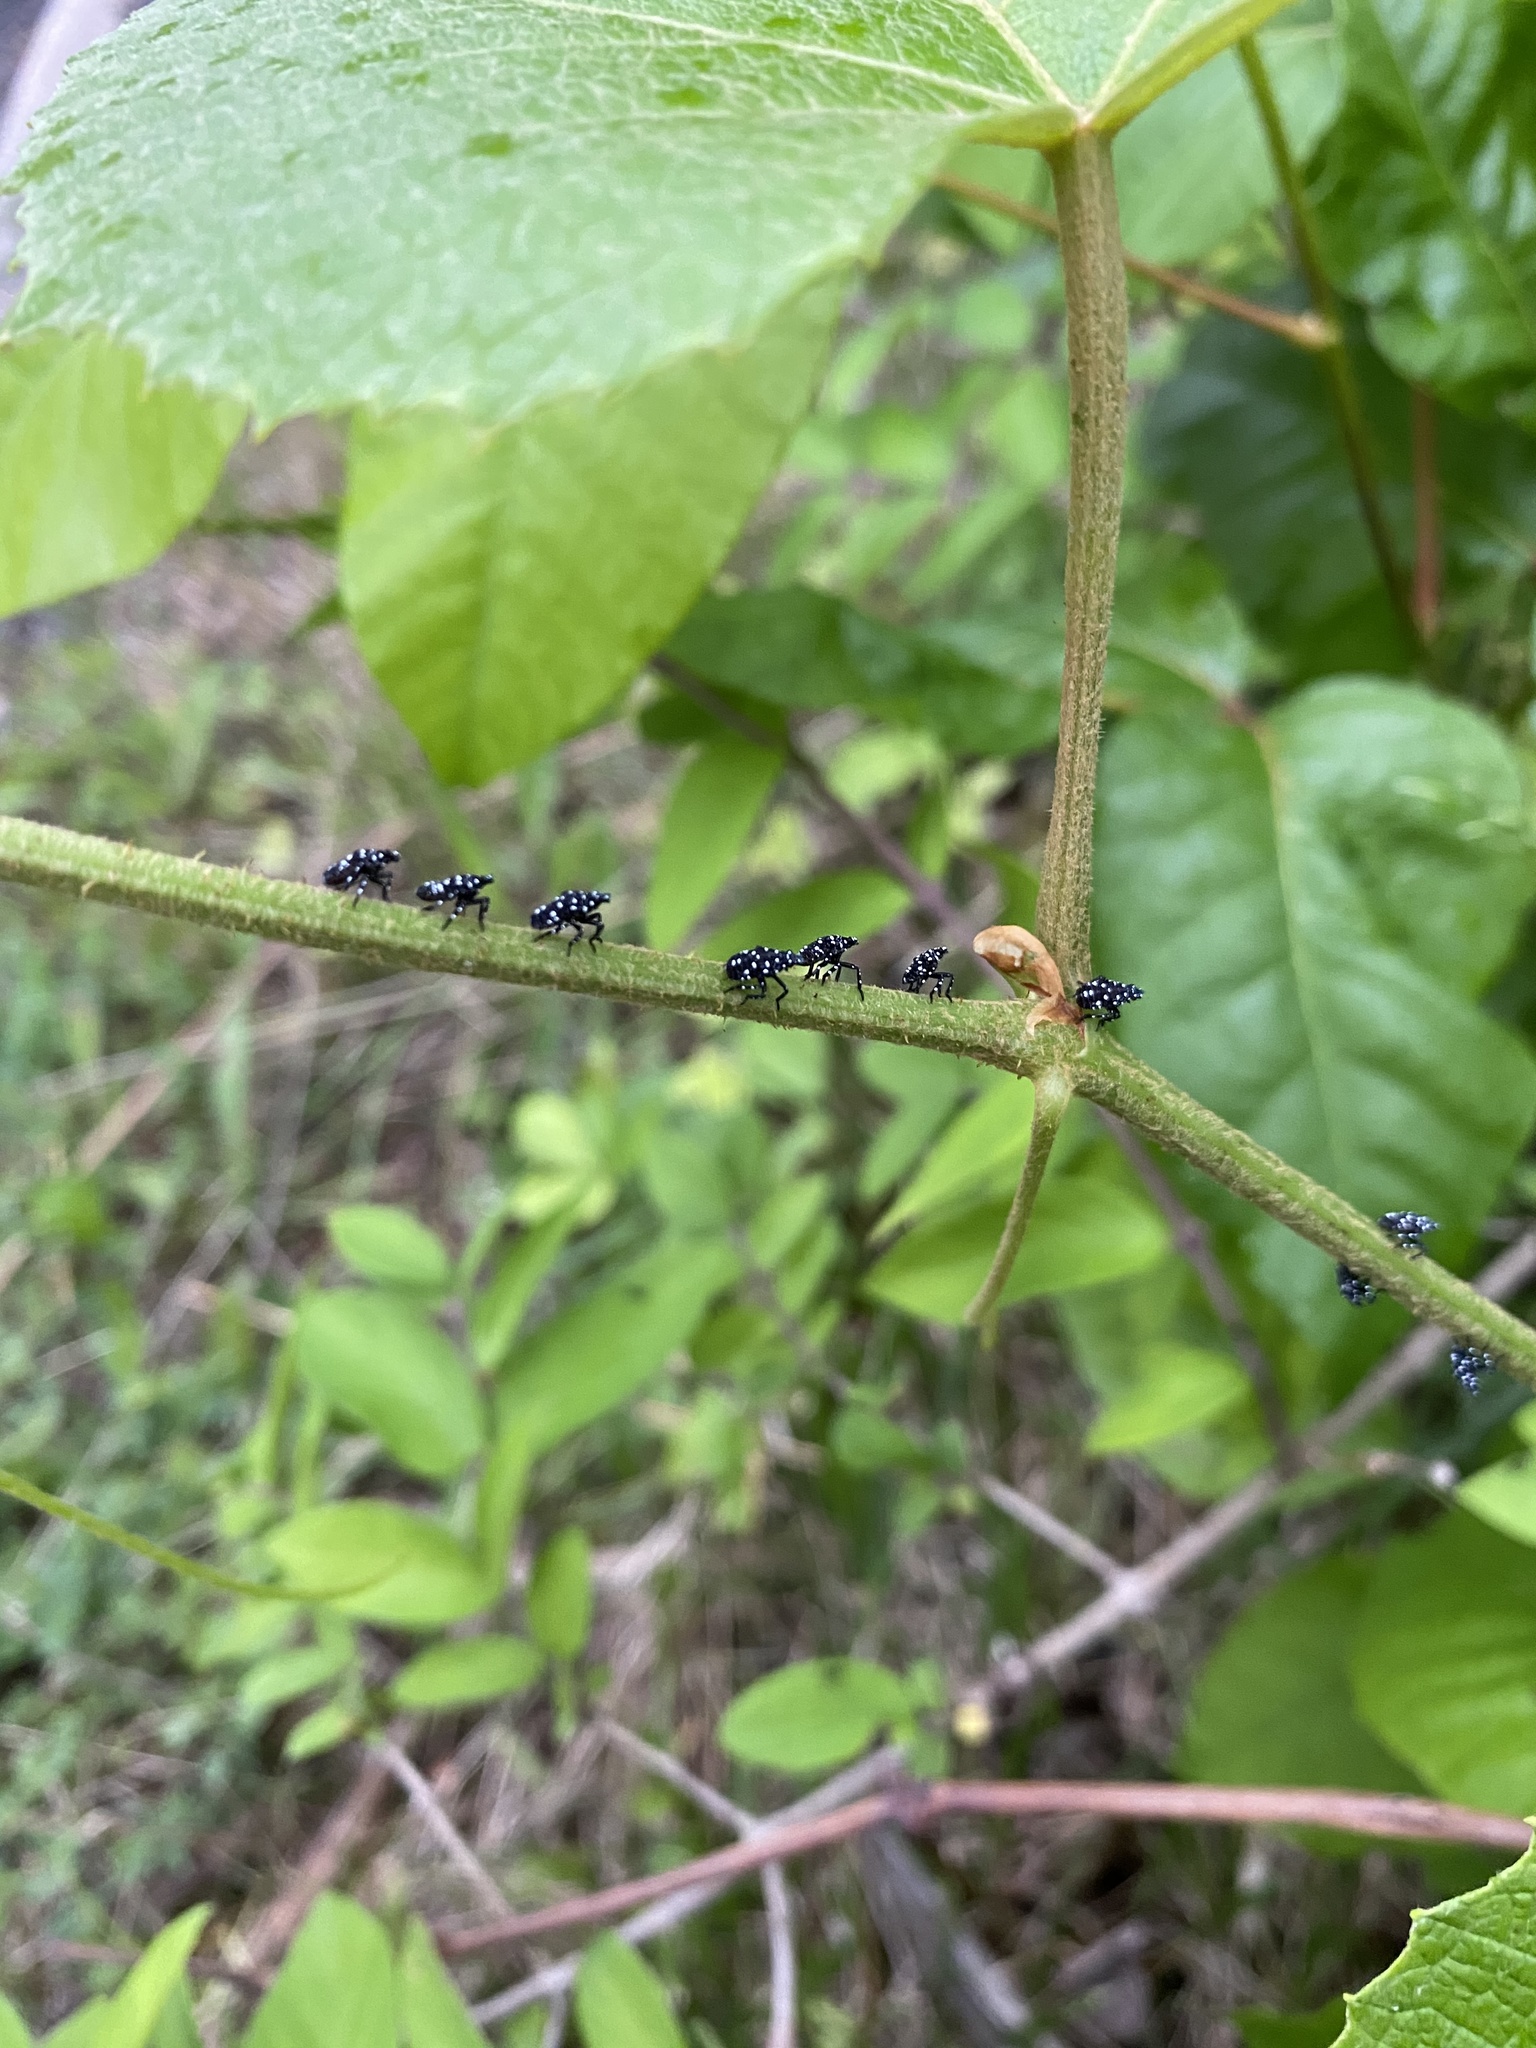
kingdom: Animalia
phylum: Arthropoda
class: Insecta
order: Hemiptera
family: Fulgoridae
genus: Lycorma
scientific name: Lycorma delicatula
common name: Spotted lanternfly
